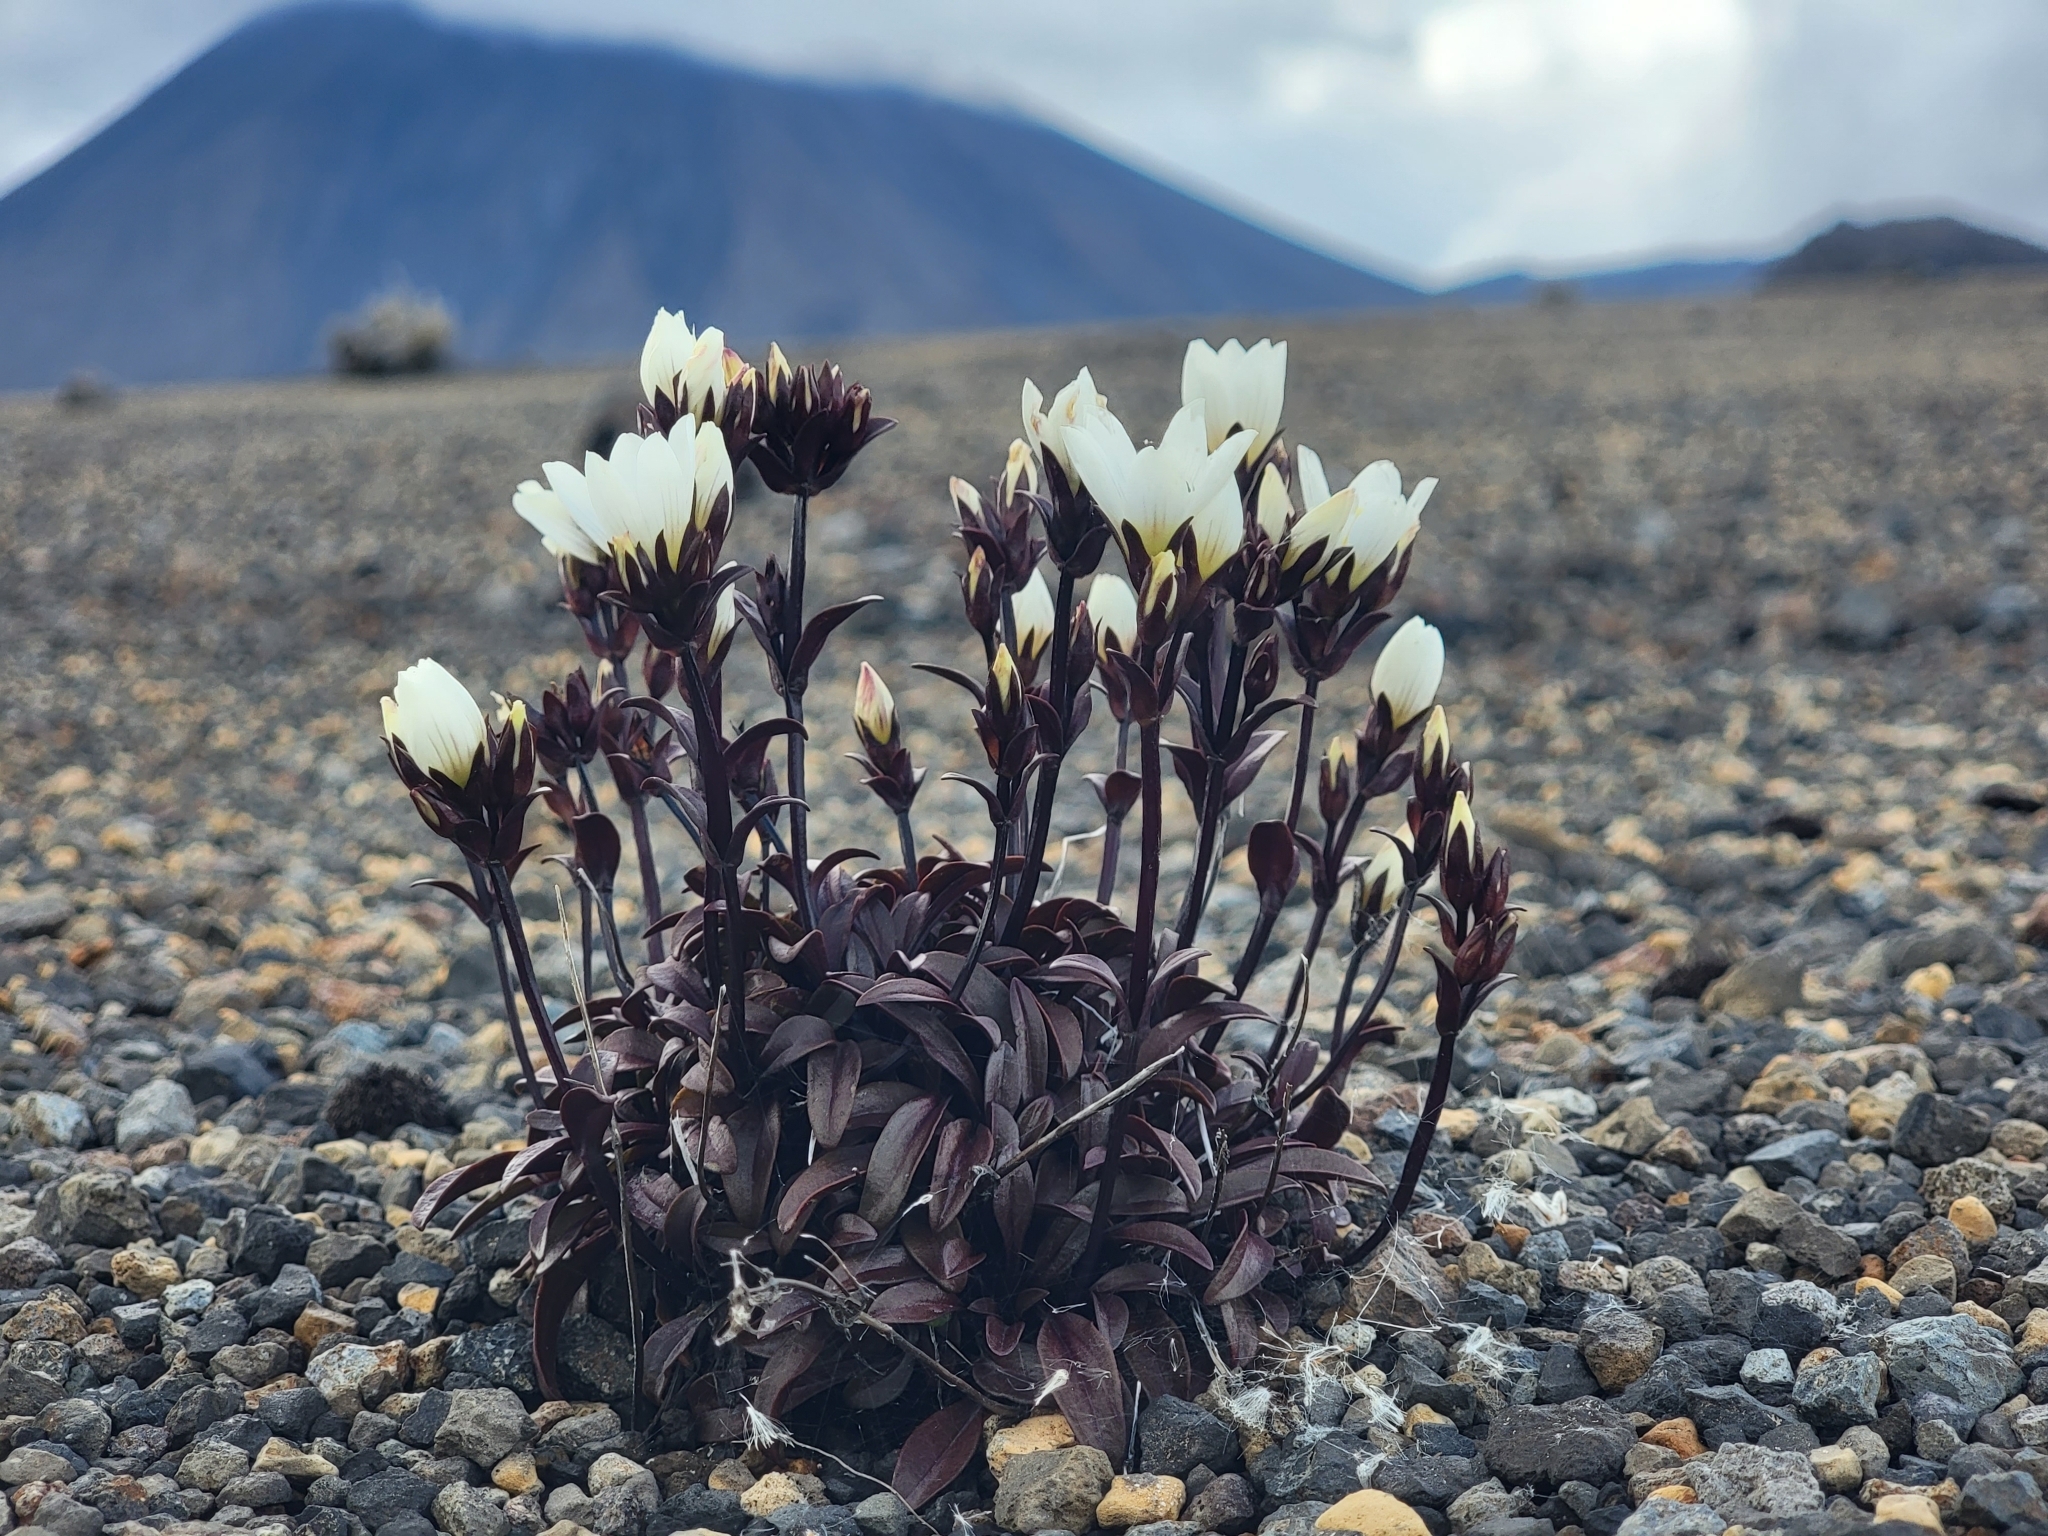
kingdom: Plantae
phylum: Tracheophyta
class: Magnoliopsida
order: Gentianales
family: Gentianaceae
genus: Gentianella
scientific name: Gentianella bellidifolia
